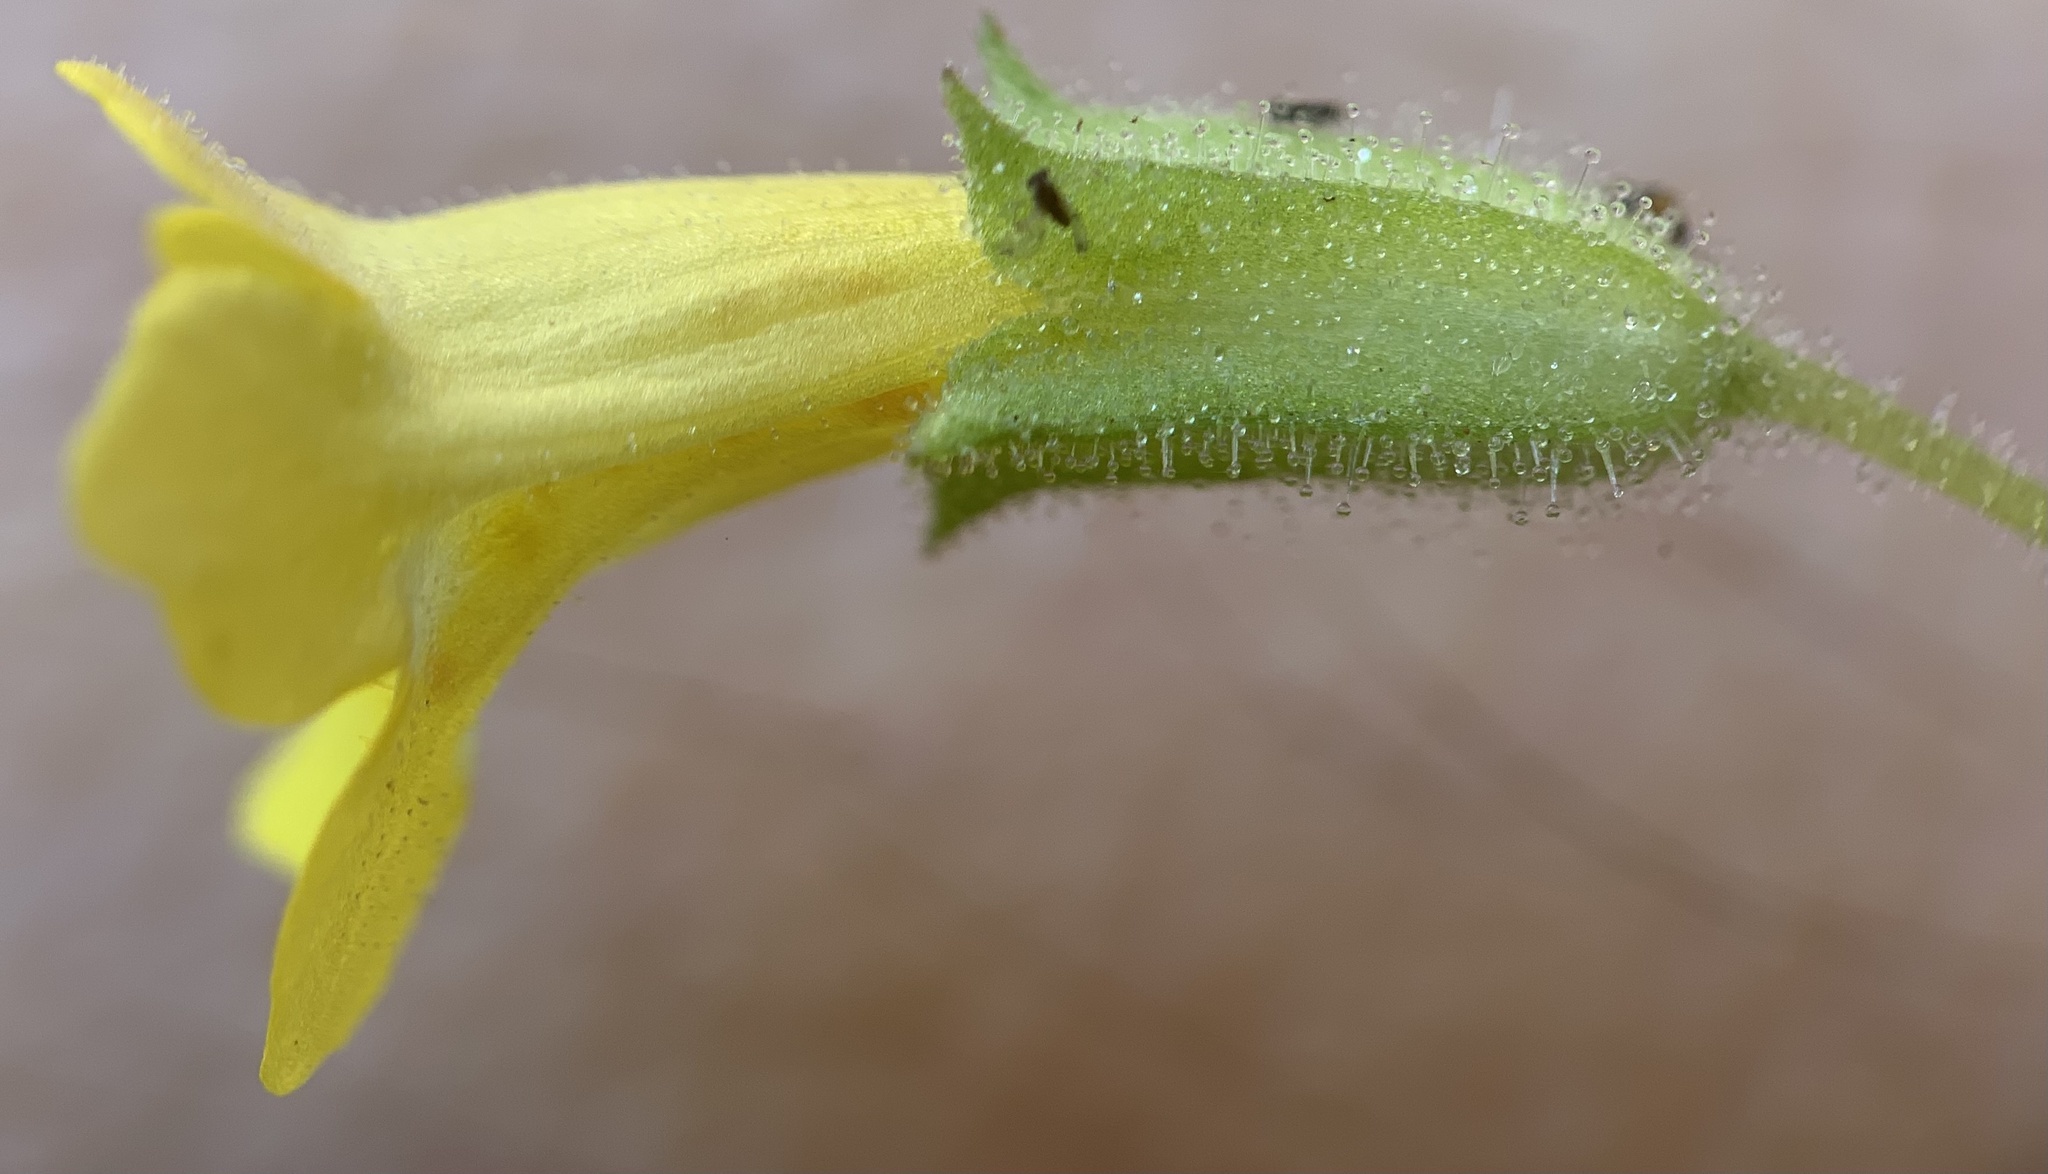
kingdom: Plantae
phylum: Tracheophyta
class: Magnoliopsida
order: Lamiales
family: Phrymaceae
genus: Erythranthe
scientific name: Erythranthe floribunda
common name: Floriferous monkeyflower
